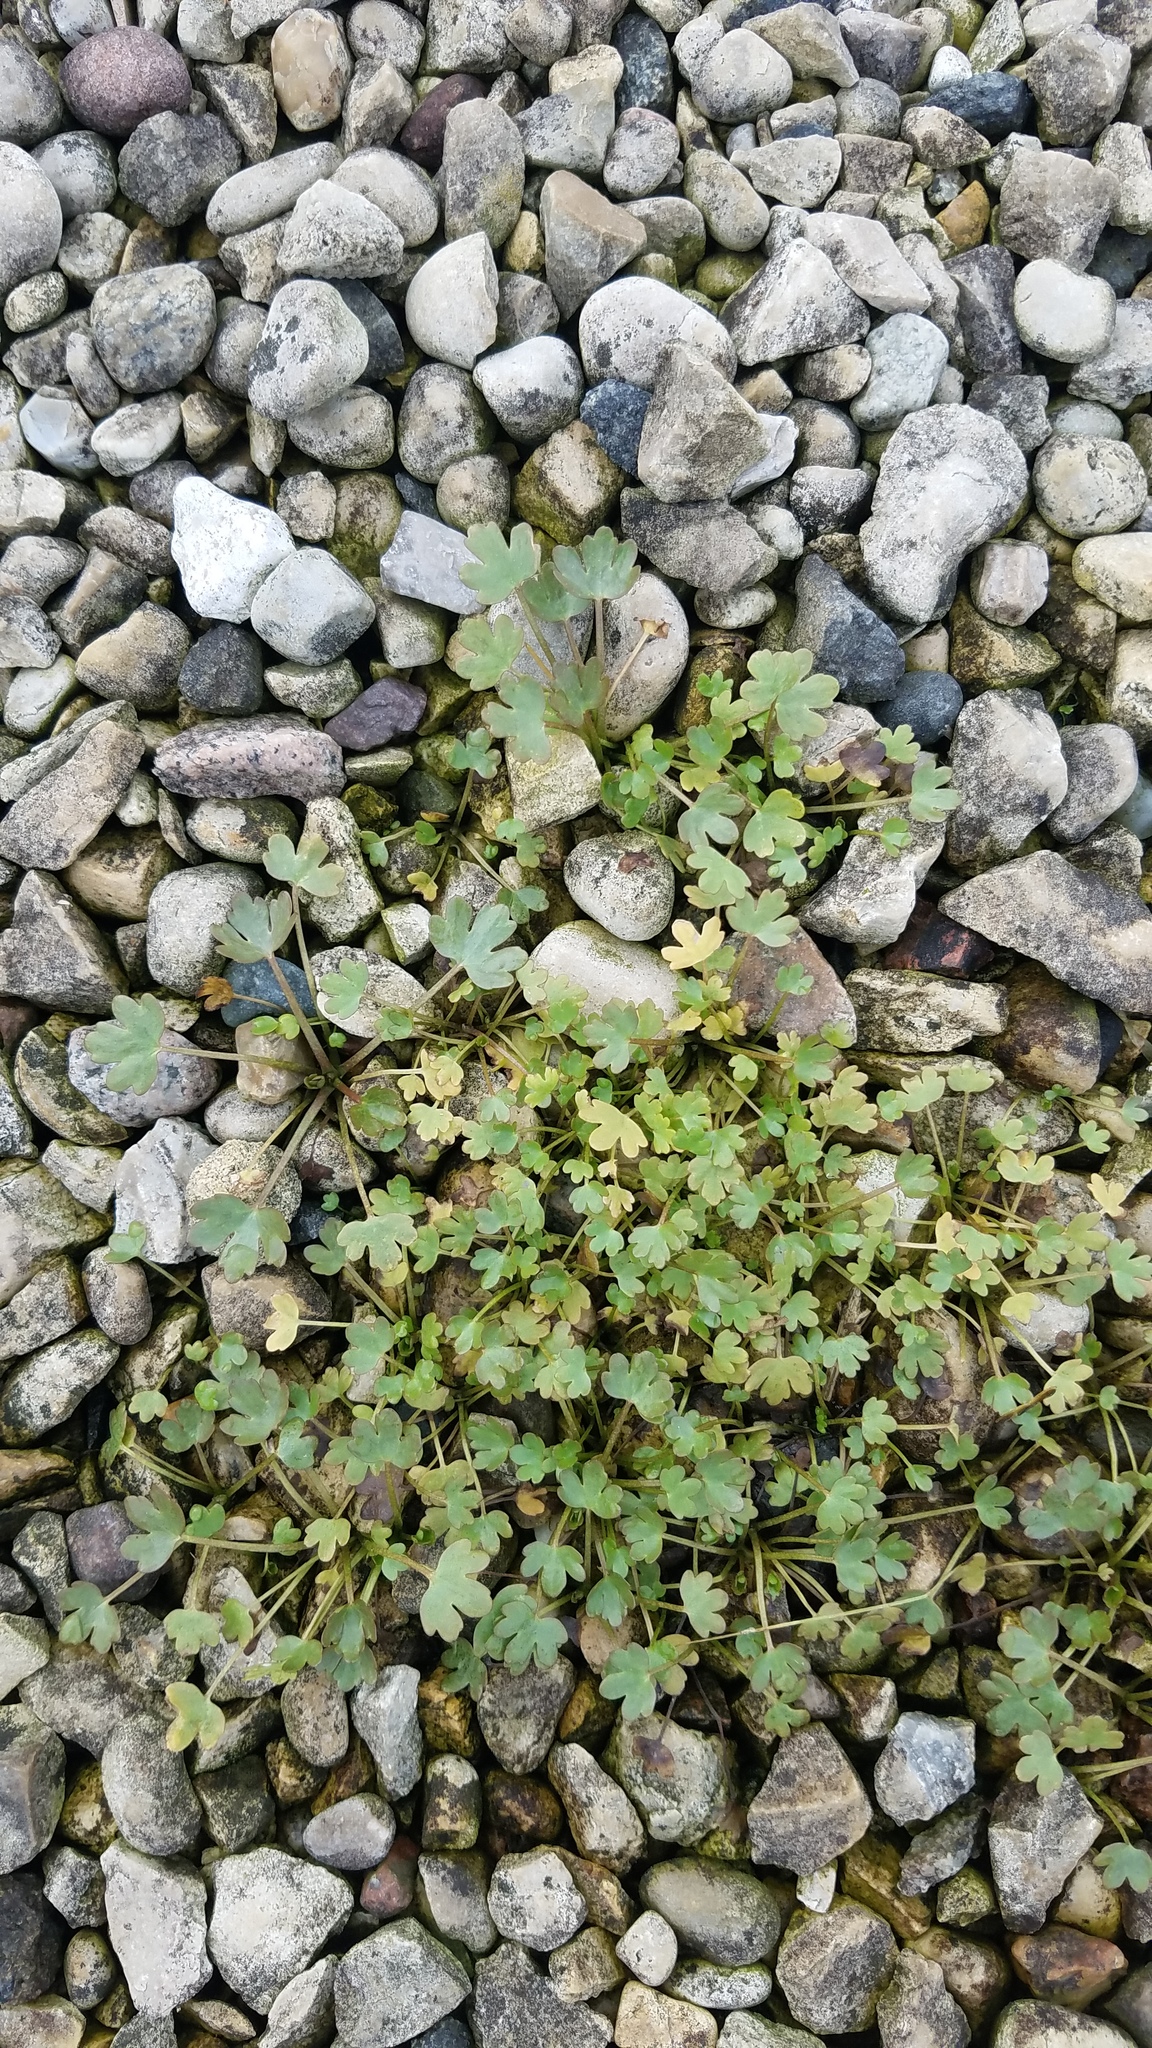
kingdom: Plantae
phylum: Tracheophyta
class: Magnoliopsida
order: Ranunculales
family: Ranunculaceae
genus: Ranunculus
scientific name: Ranunculus sceleratus
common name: Celery-leaved buttercup
